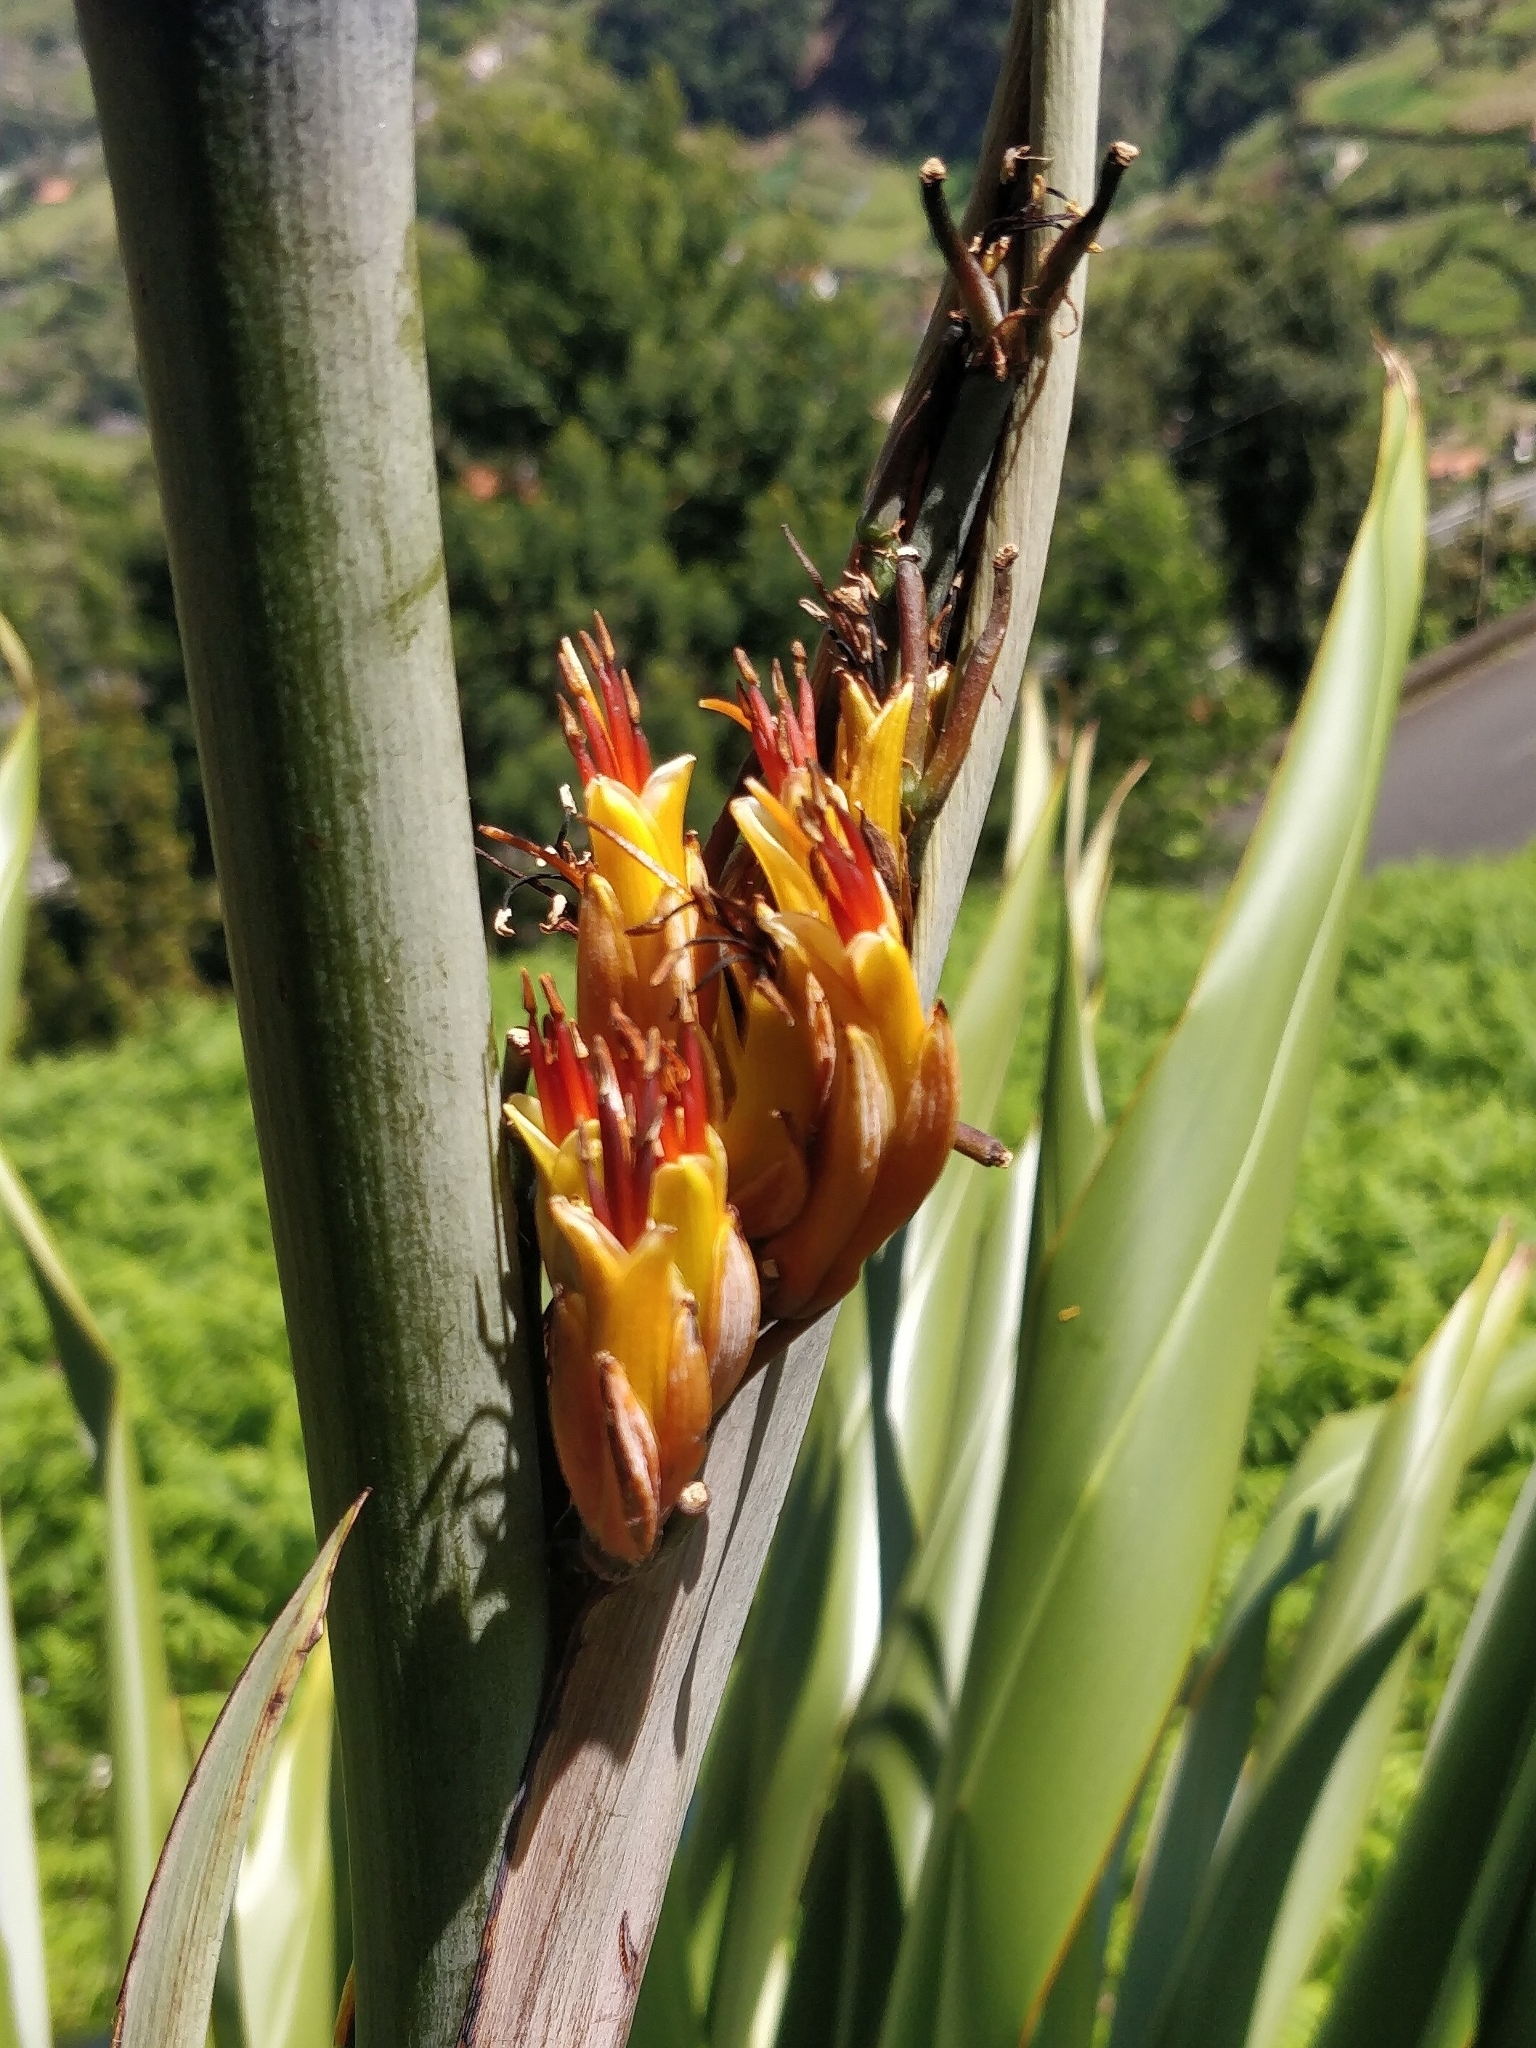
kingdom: Plantae
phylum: Tracheophyta
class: Liliopsida
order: Asparagales
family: Asphodelaceae
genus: Phormium
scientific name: Phormium tenax
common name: New zealand flax
